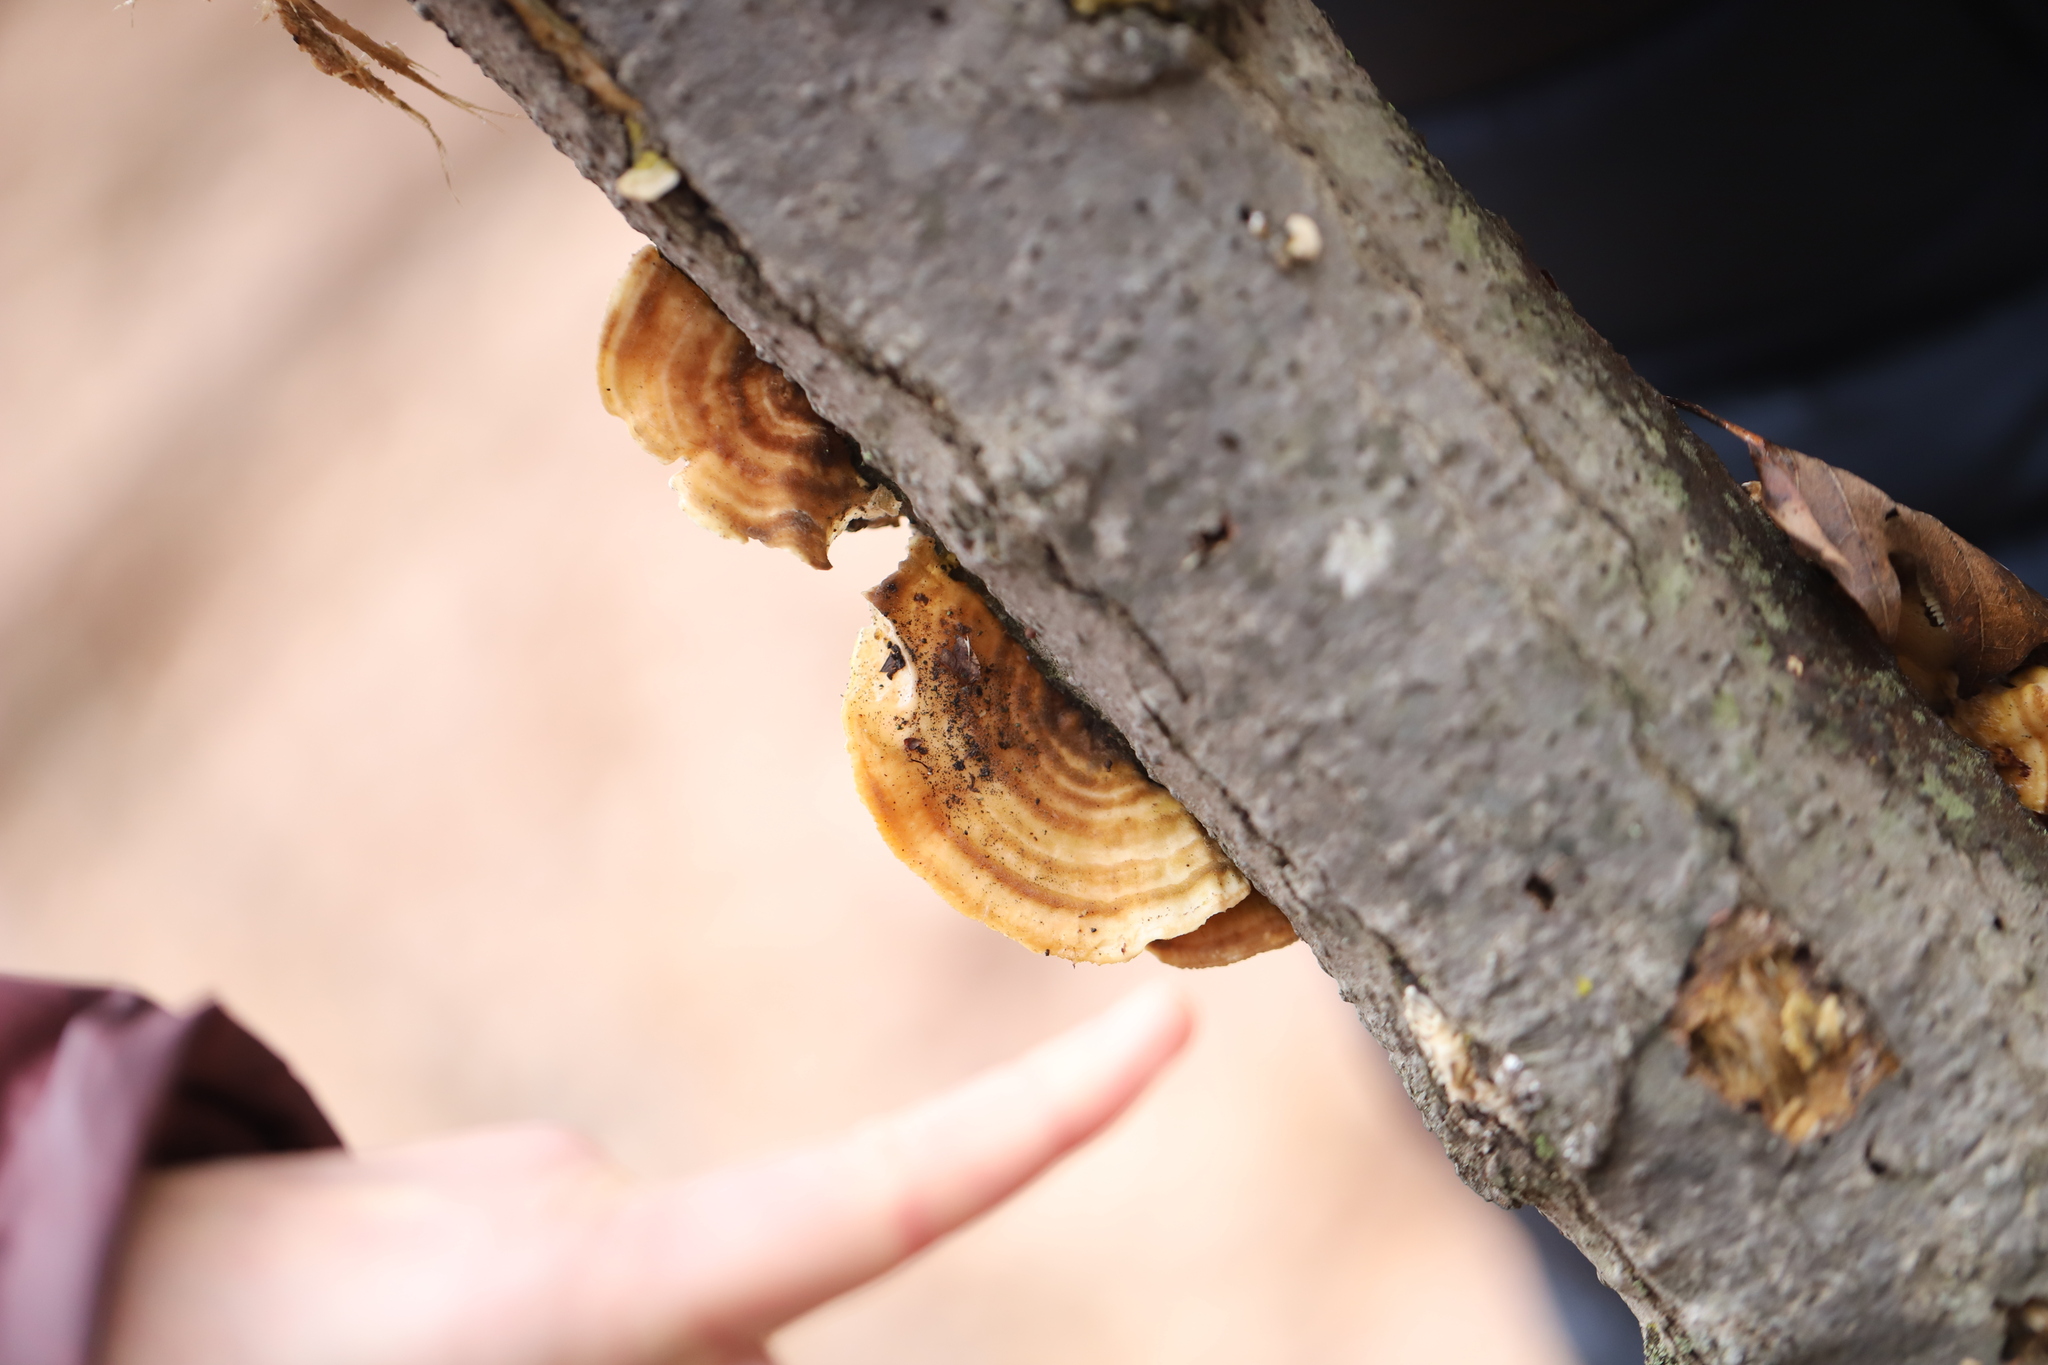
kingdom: Fungi
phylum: Basidiomycota
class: Agaricomycetes
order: Polyporales
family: Polyporaceae
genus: Lenzites
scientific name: Lenzites betulinus
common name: Birch mazegill
